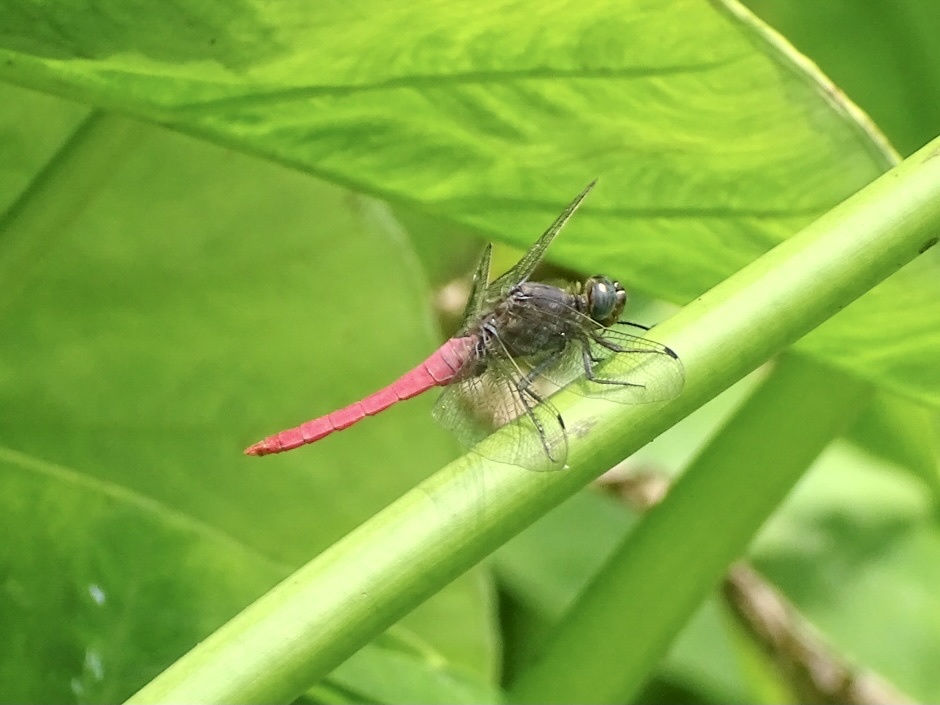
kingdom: Animalia
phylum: Arthropoda
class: Insecta
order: Odonata
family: Libellulidae
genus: Orthetrum
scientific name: Orthetrum pruinosum
